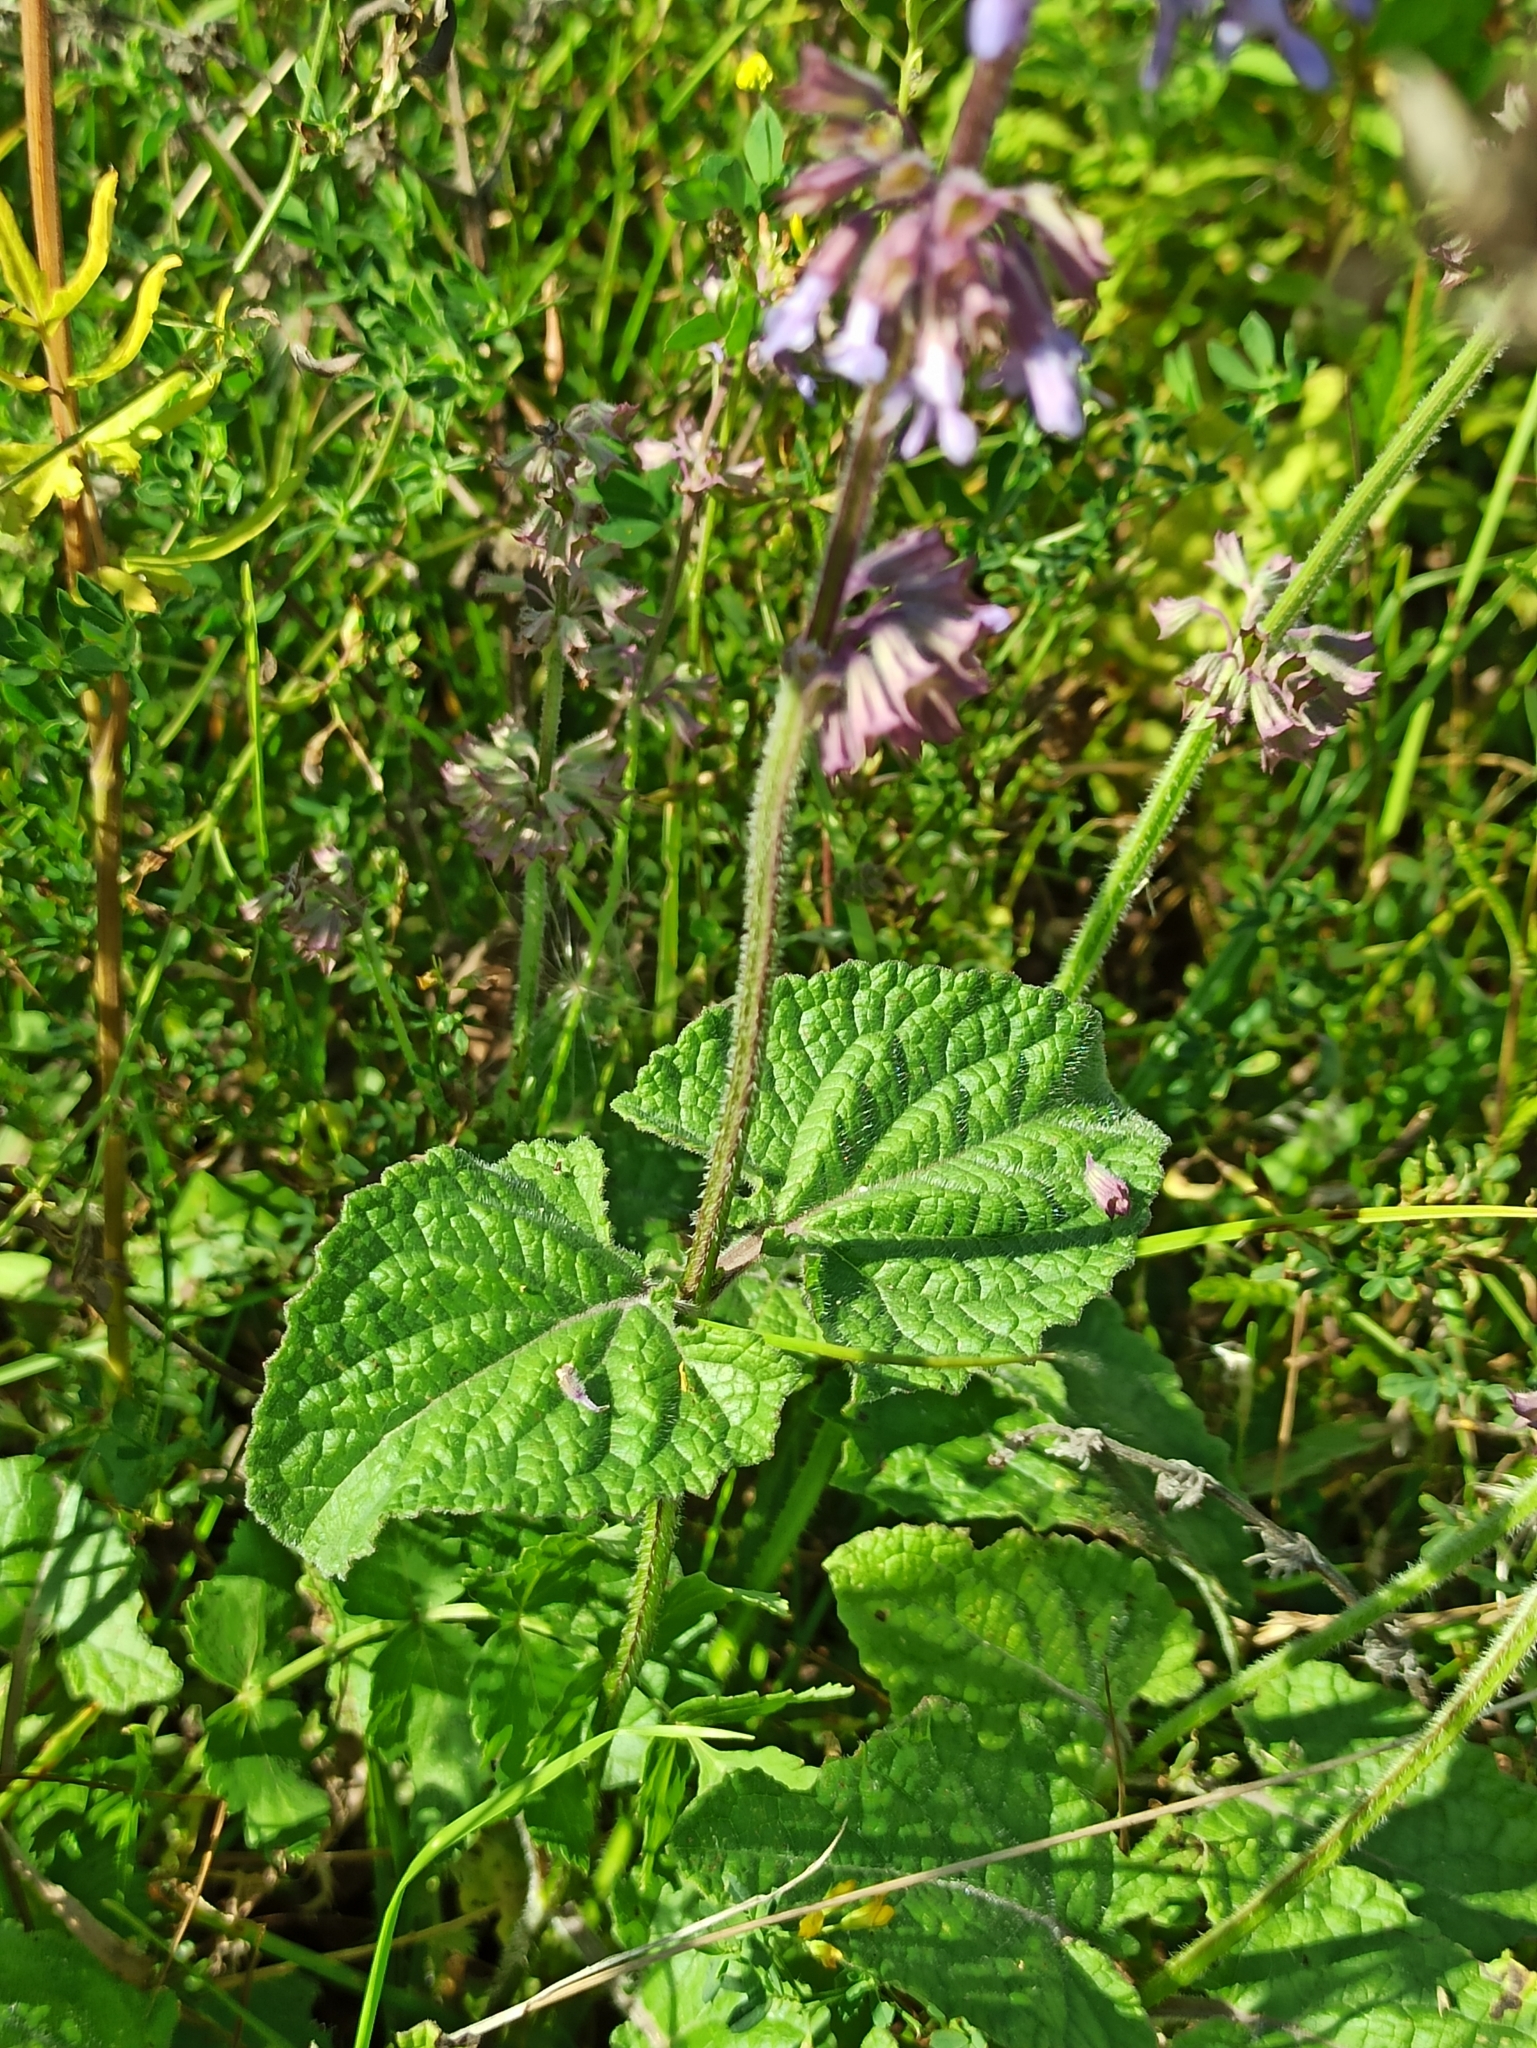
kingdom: Plantae
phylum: Tracheophyta
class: Magnoliopsida
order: Lamiales
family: Lamiaceae
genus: Salvia
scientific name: Salvia verticillata
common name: Whorled clary
